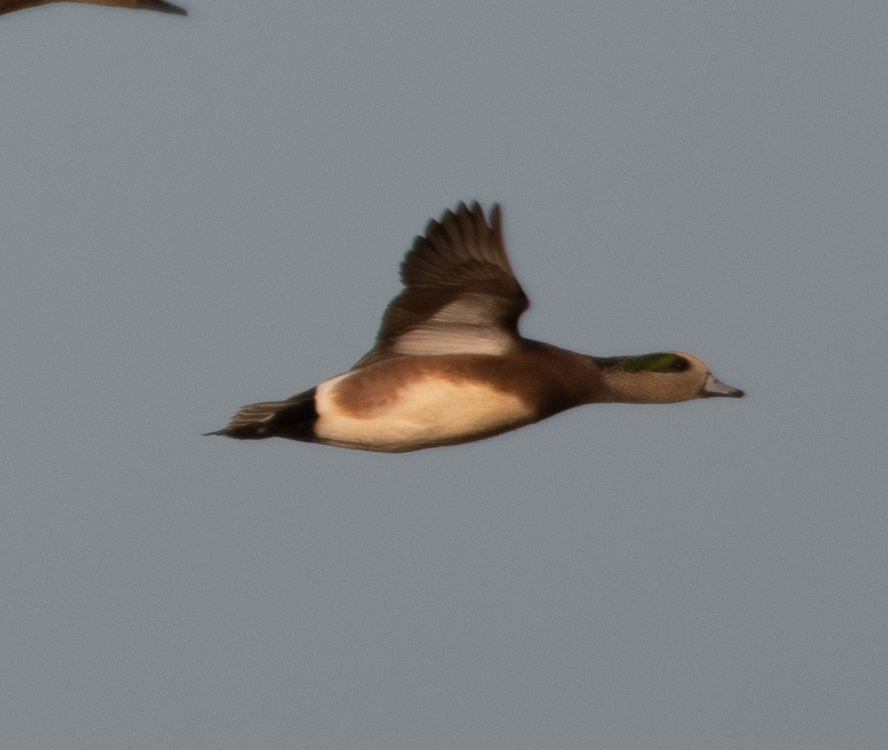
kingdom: Animalia
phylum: Chordata
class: Aves
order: Anseriformes
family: Anatidae
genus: Mareca
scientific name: Mareca americana
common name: American wigeon
